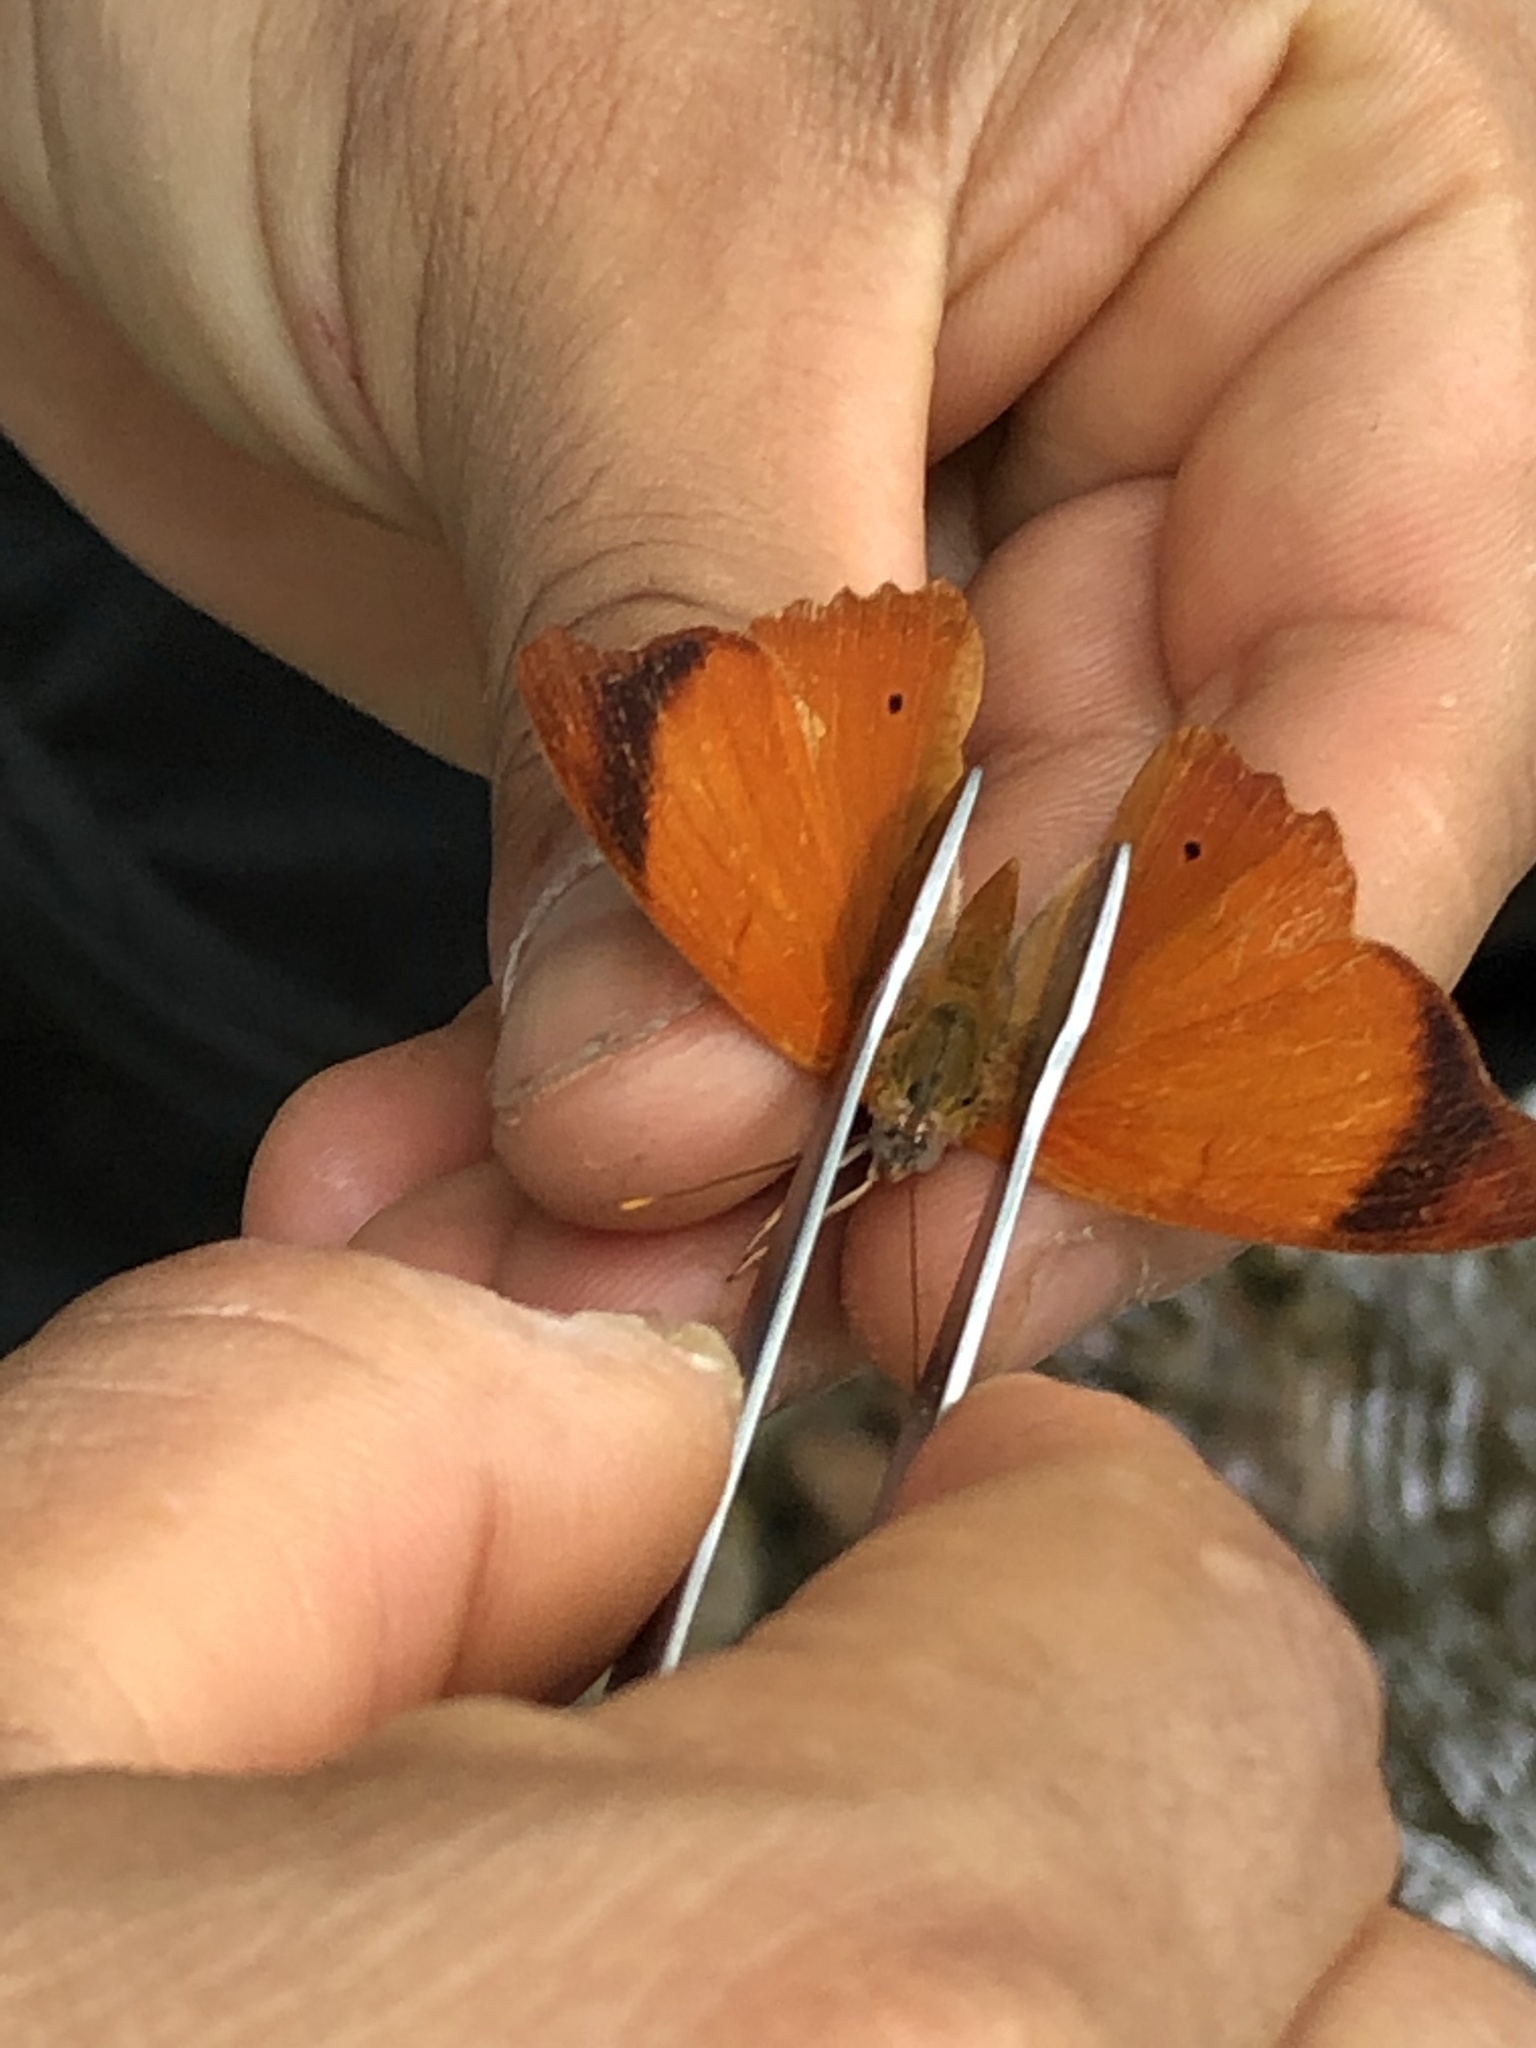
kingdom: Animalia
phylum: Arthropoda
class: Insecta
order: Lepidoptera
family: Nymphalidae
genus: Temenis
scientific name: Temenis laothoe
